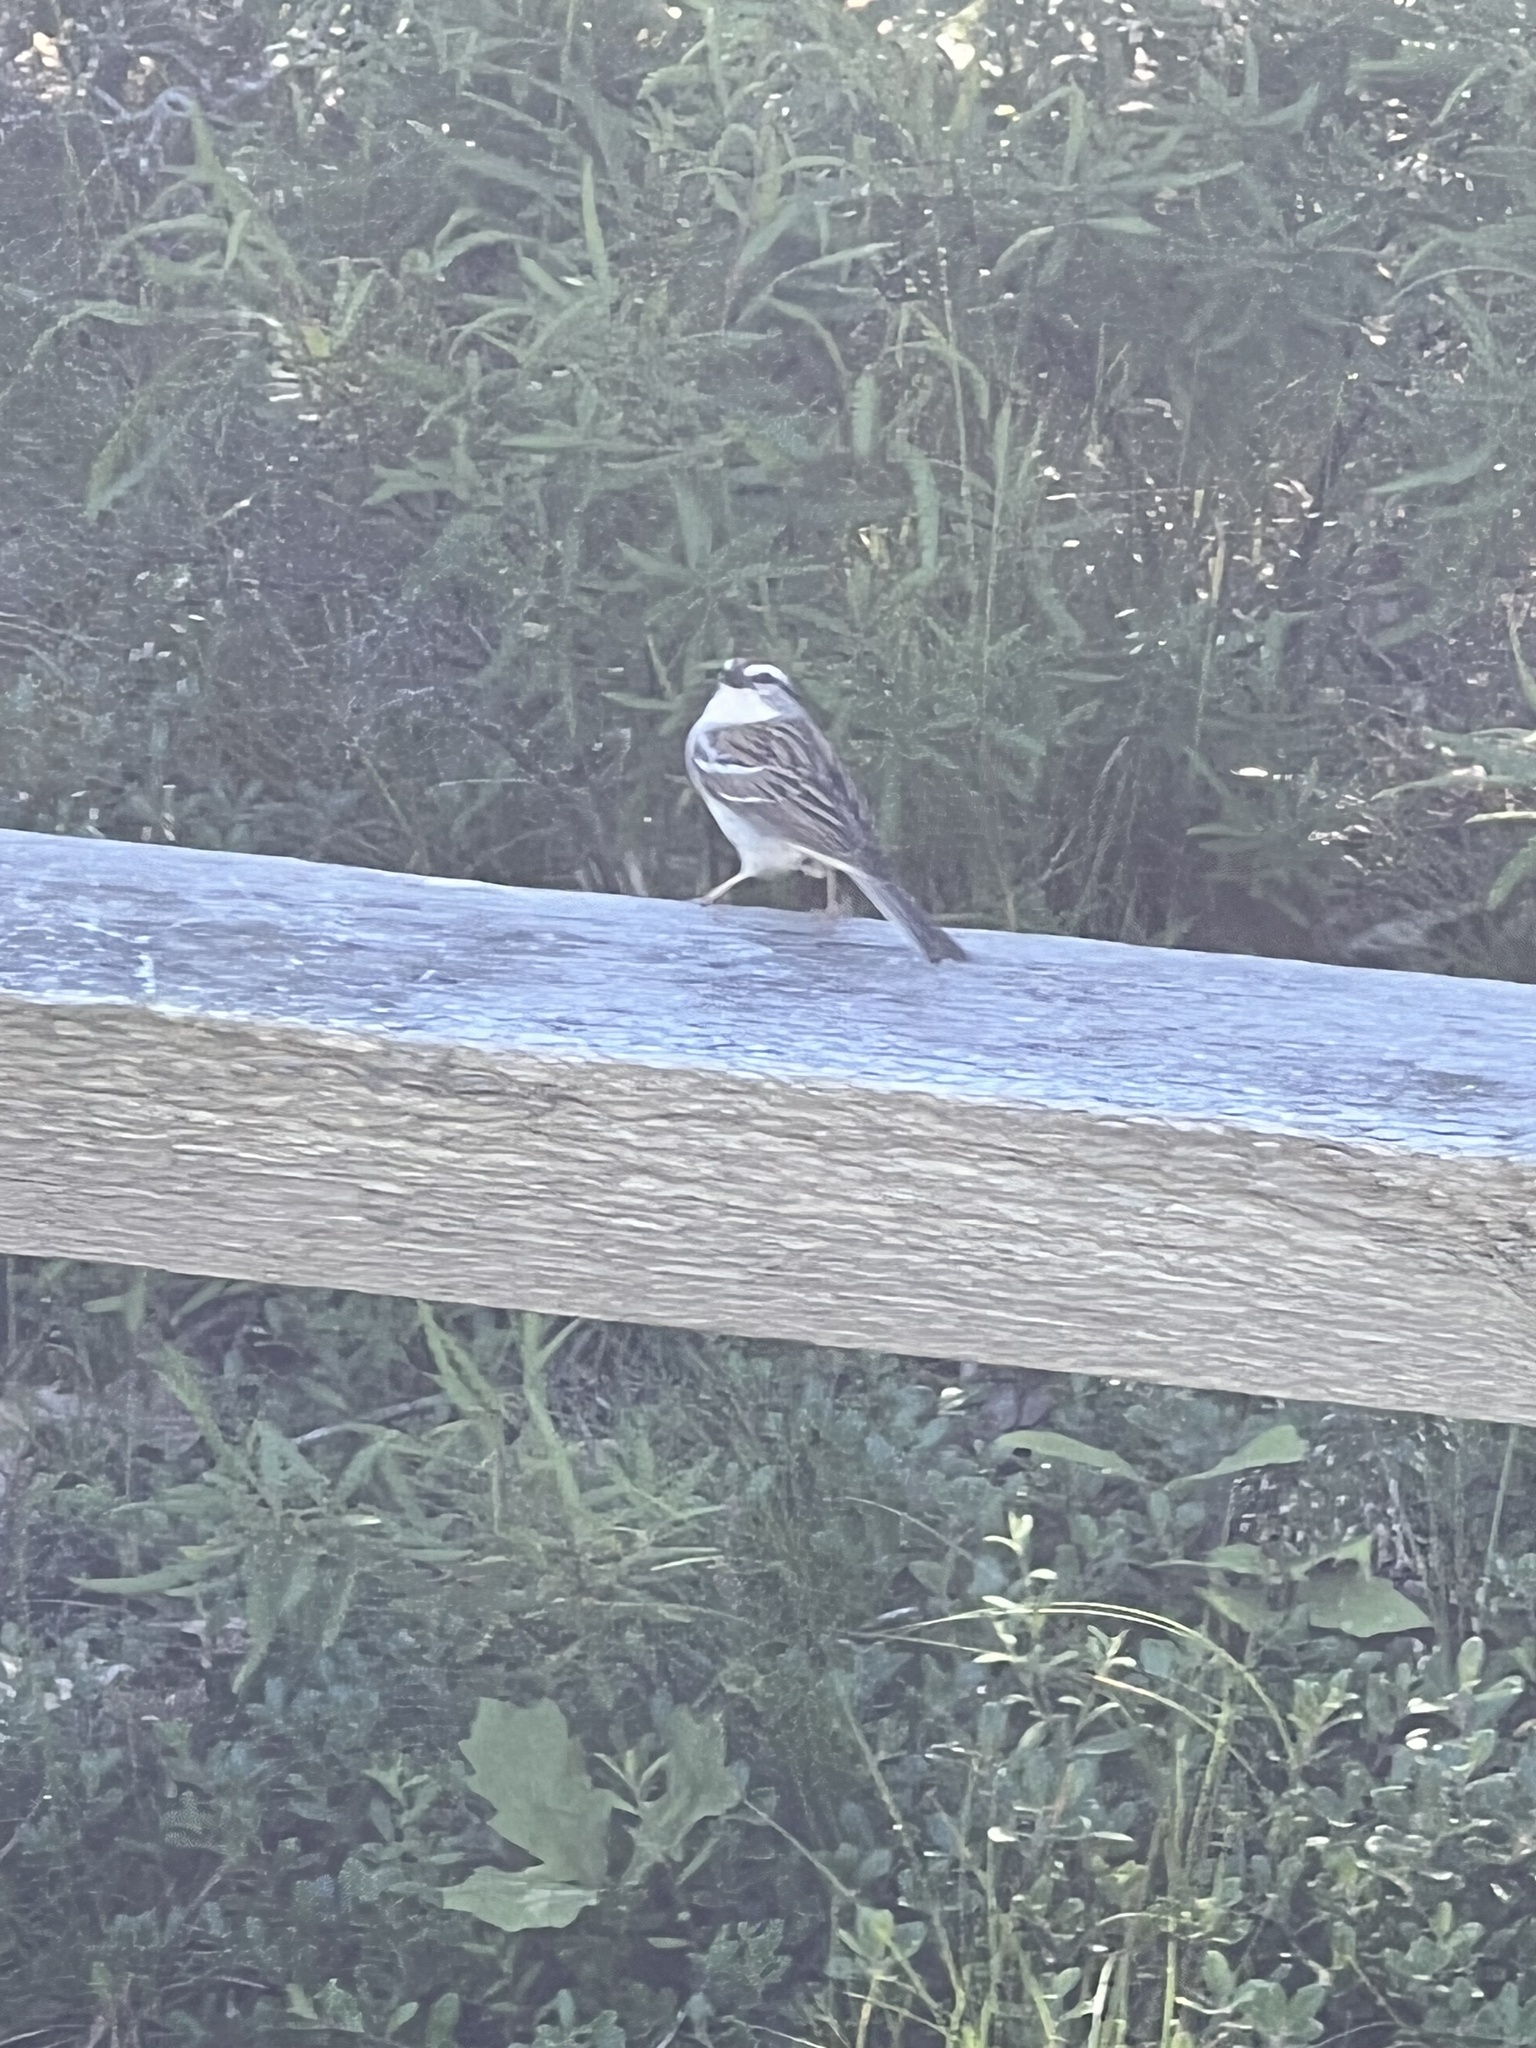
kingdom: Animalia
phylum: Chordata
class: Aves
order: Passeriformes
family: Passerellidae
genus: Spizella
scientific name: Spizella passerina
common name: Chipping sparrow
